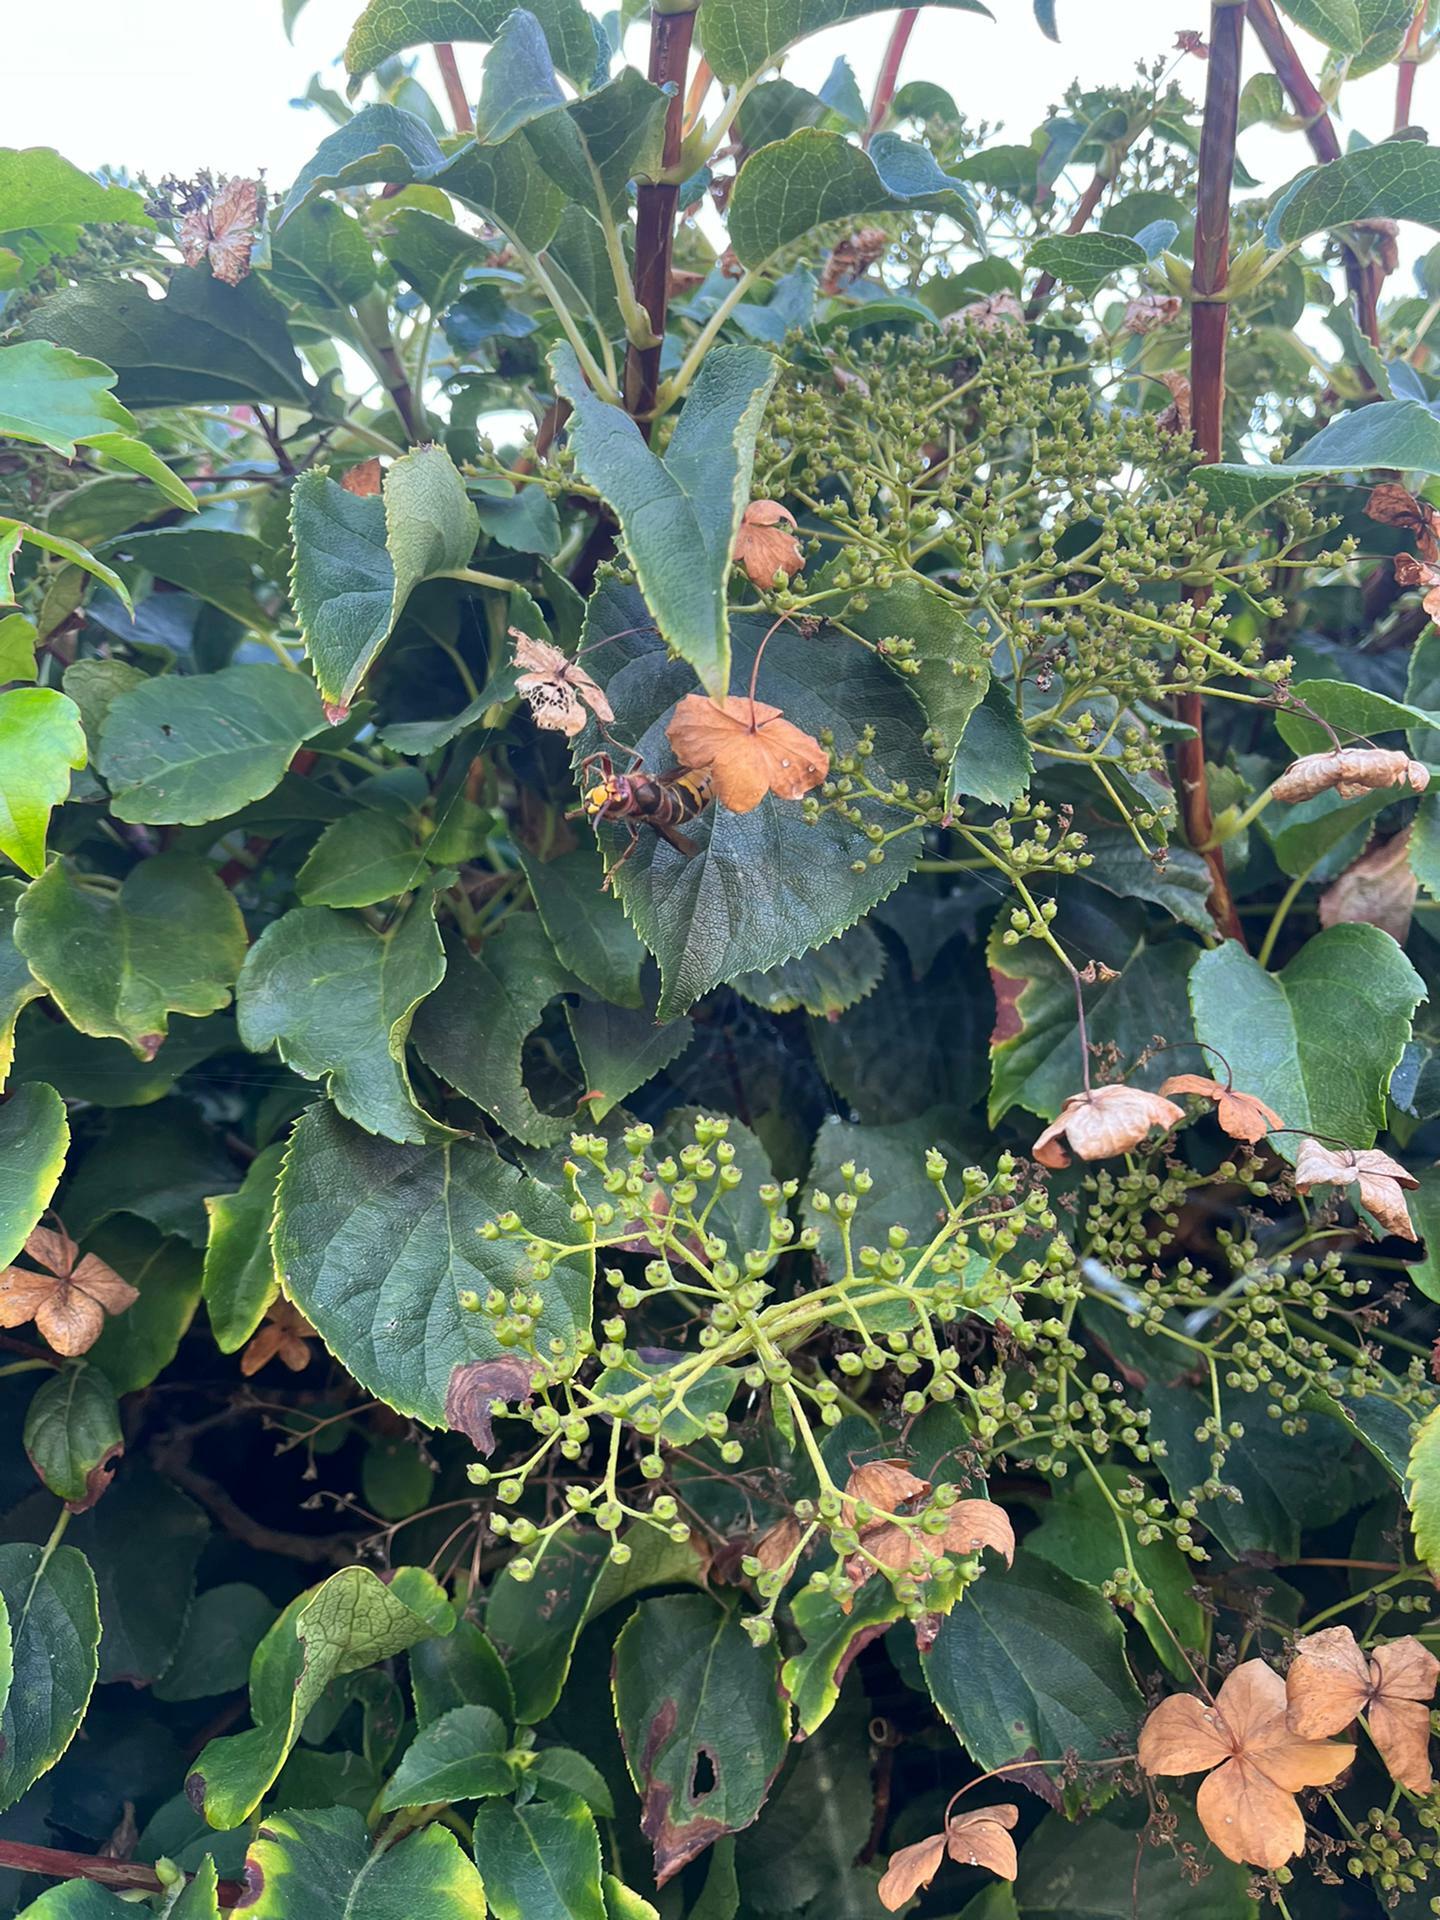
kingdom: Animalia
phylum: Arthropoda
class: Insecta
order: Hymenoptera
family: Vespidae
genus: Vespa
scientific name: Vespa crabro
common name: Hornet
